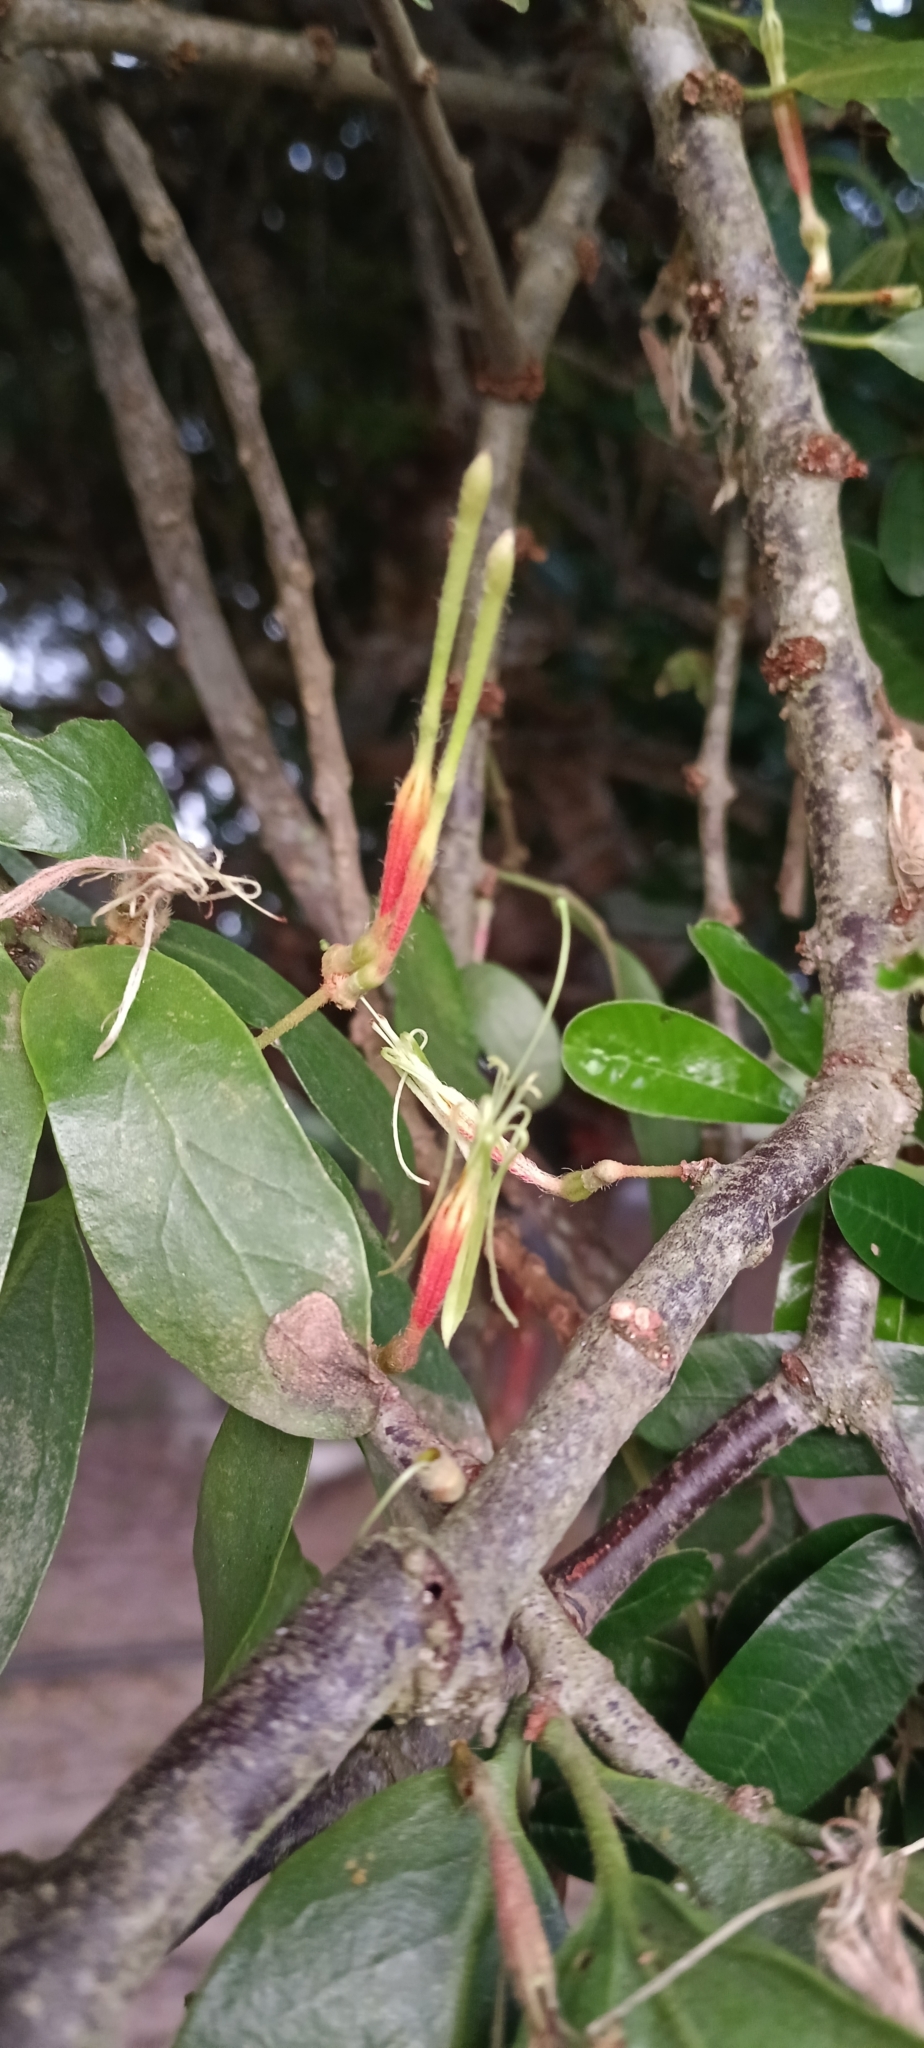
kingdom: Plantae
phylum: Tracheophyta
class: Magnoliopsida
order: Santalales
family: Loranthaceae
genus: Erianthemum
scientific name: Erianthemum dregei
